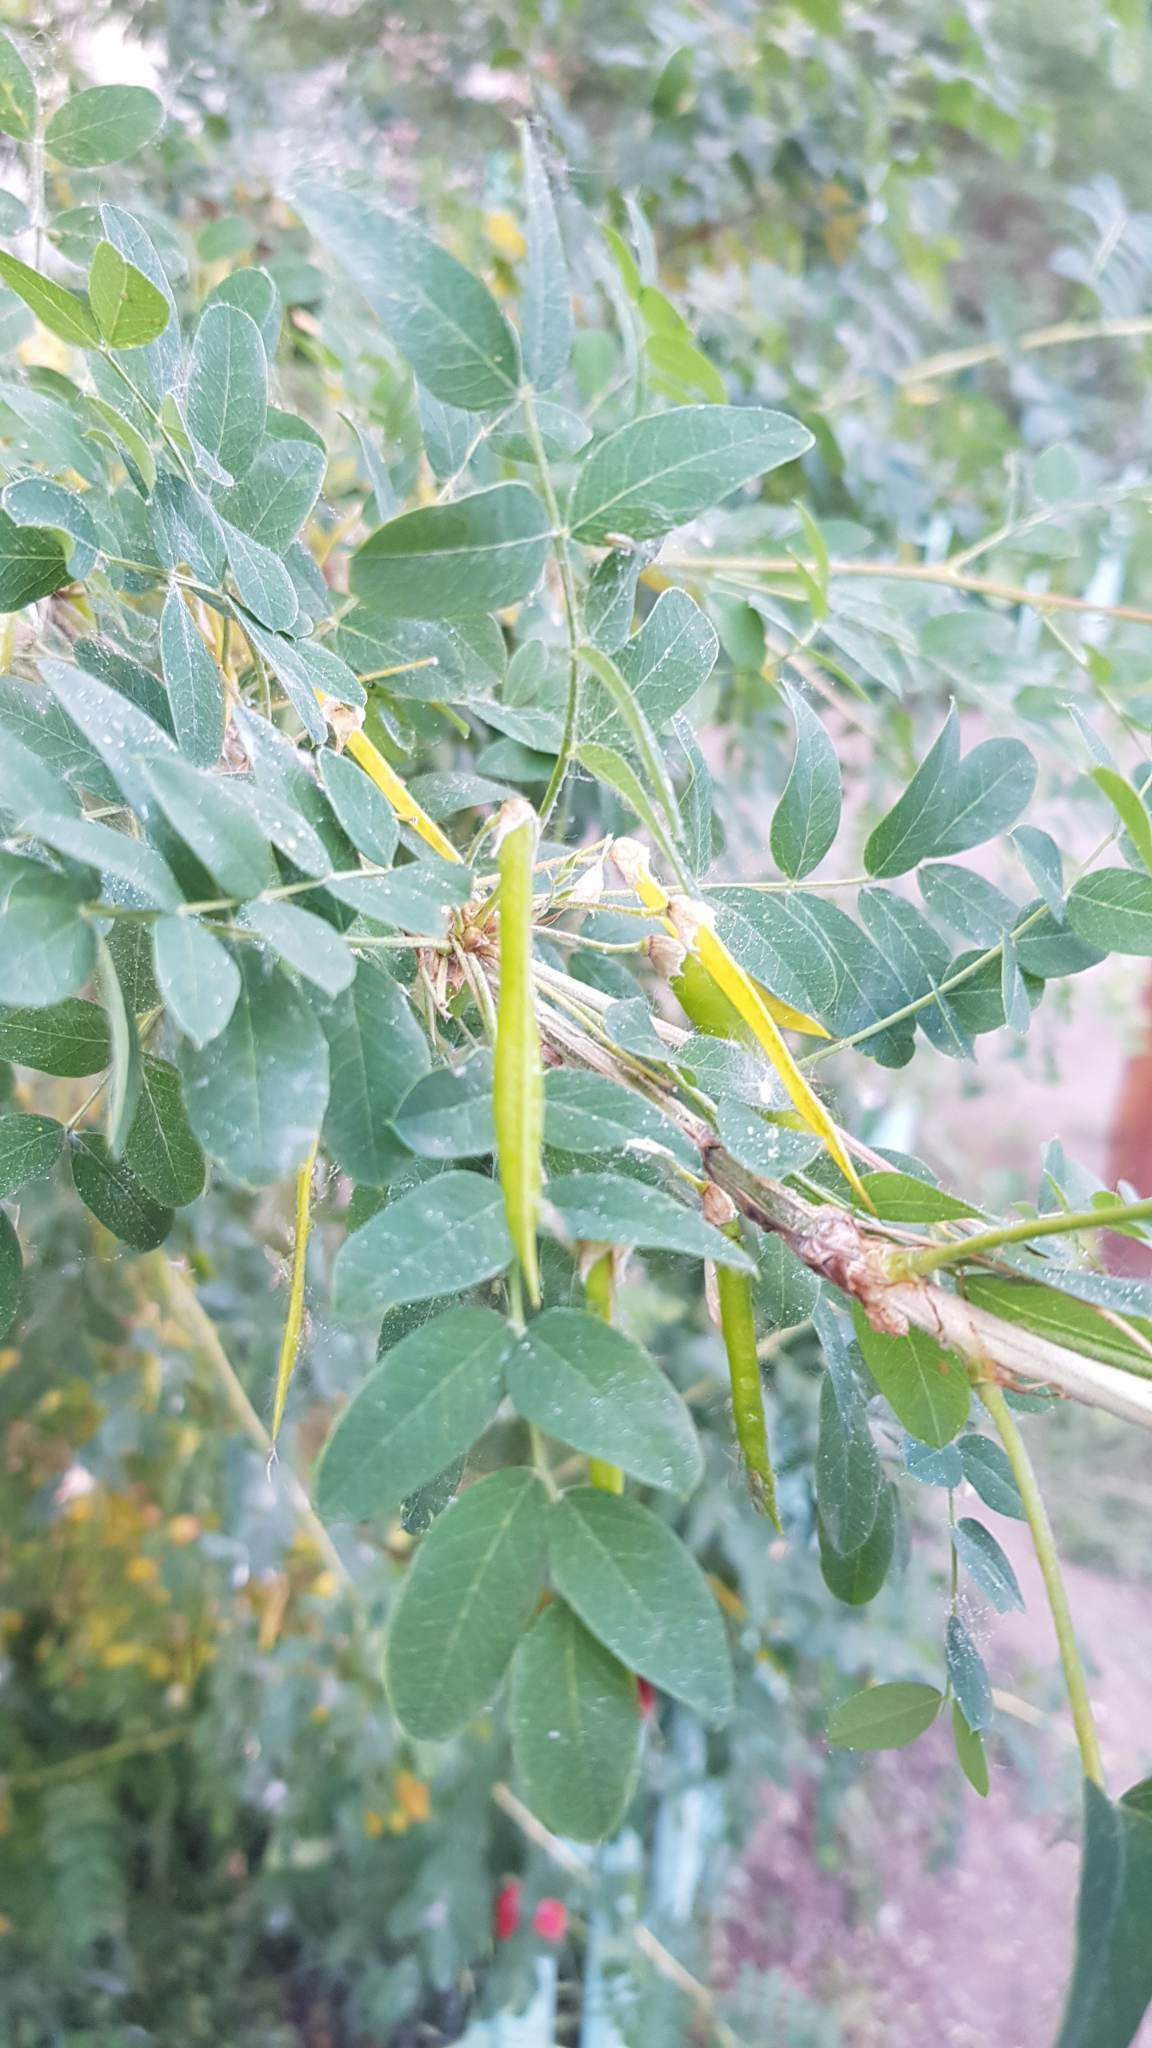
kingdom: Plantae
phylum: Tracheophyta
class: Magnoliopsida
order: Fabales
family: Fabaceae
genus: Caragana
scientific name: Caragana arborescens
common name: Siberian peashrub
